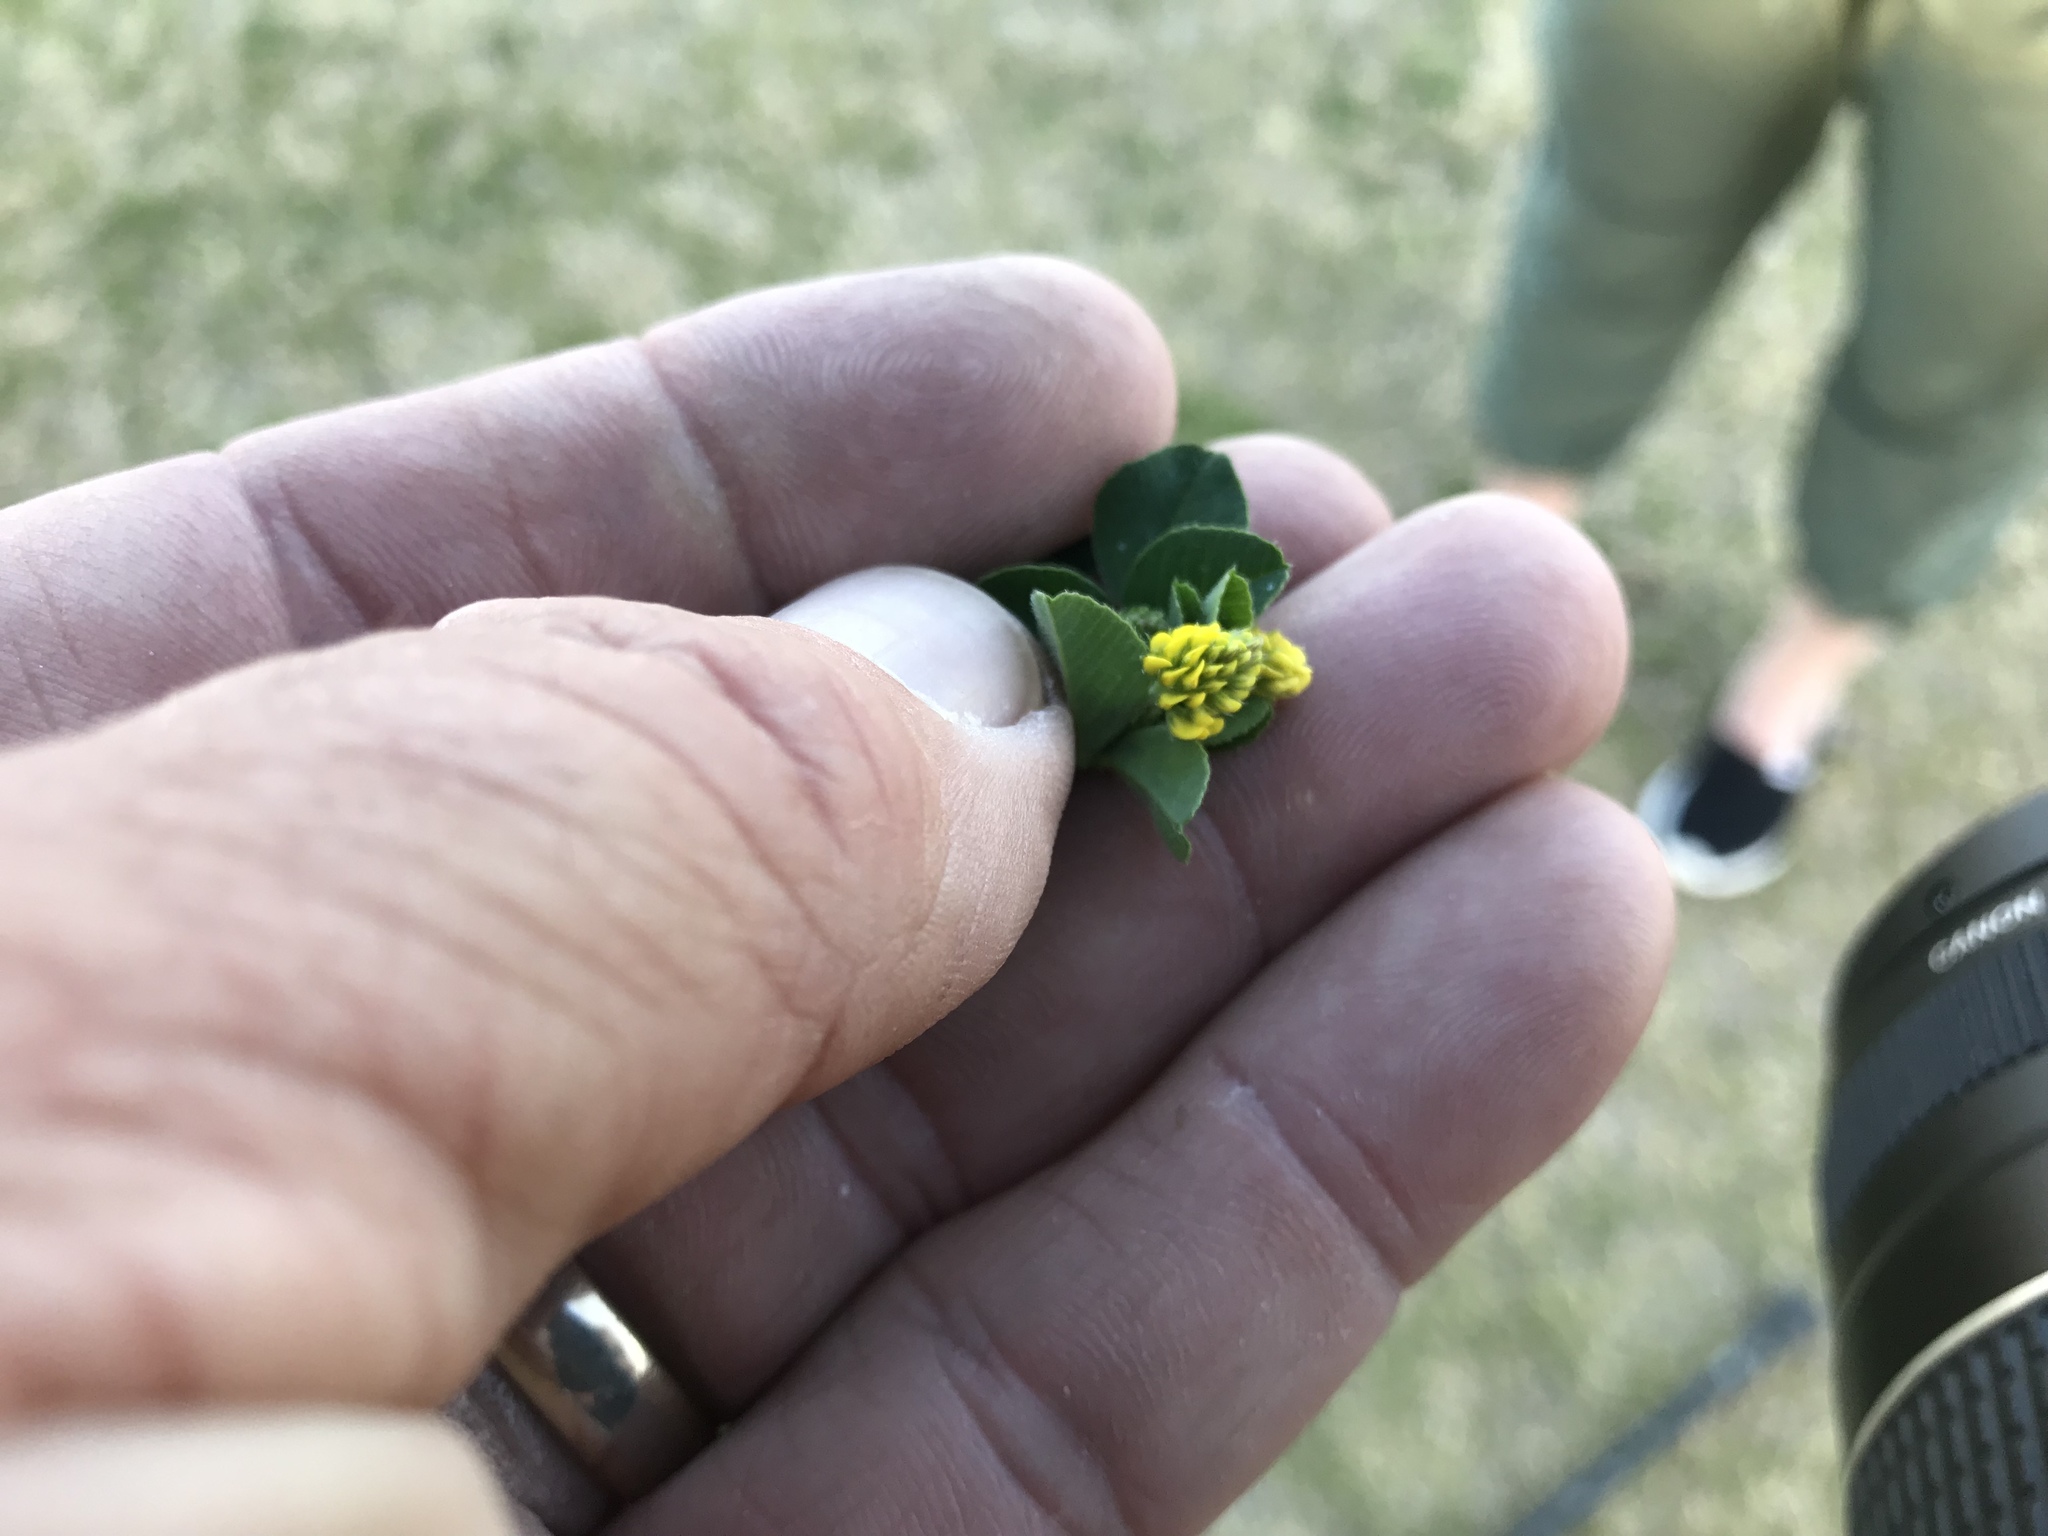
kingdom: Plantae
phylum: Tracheophyta
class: Magnoliopsida
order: Fabales
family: Fabaceae
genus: Medicago
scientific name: Medicago lupulina
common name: Black medick
